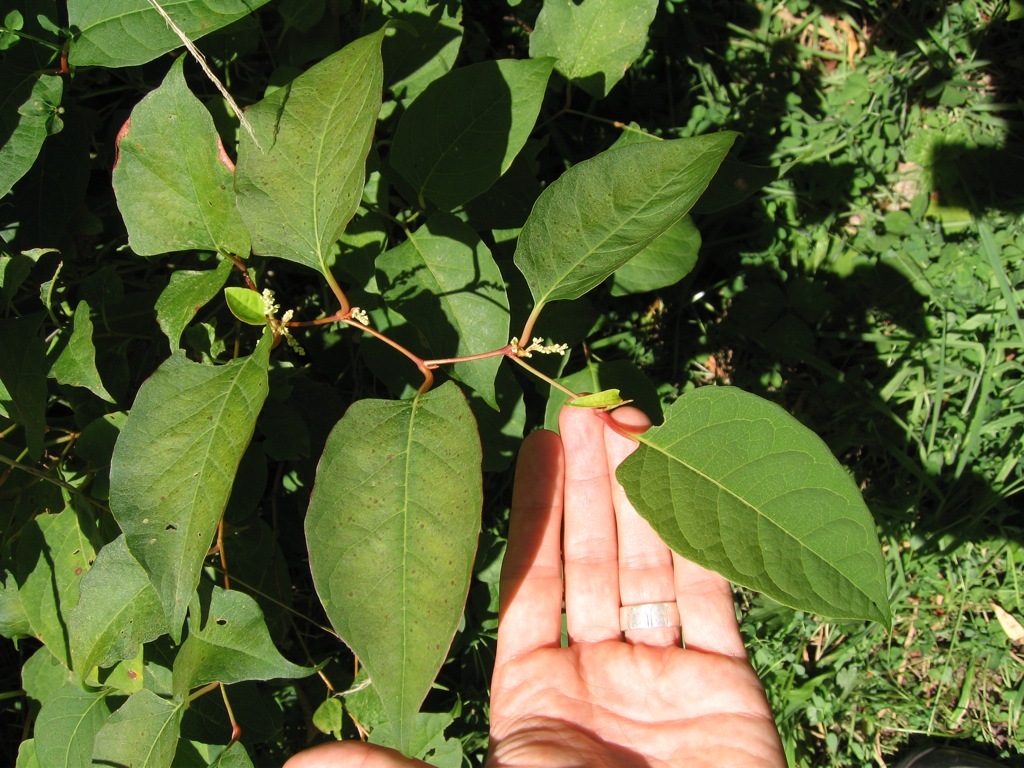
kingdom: Plantae
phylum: Tracheophyta
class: Magnoliopsida
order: Caryophyllales
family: Polygonaceae
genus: Reynoutria
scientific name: Reynoutria japonica
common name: Japanese knotweed
